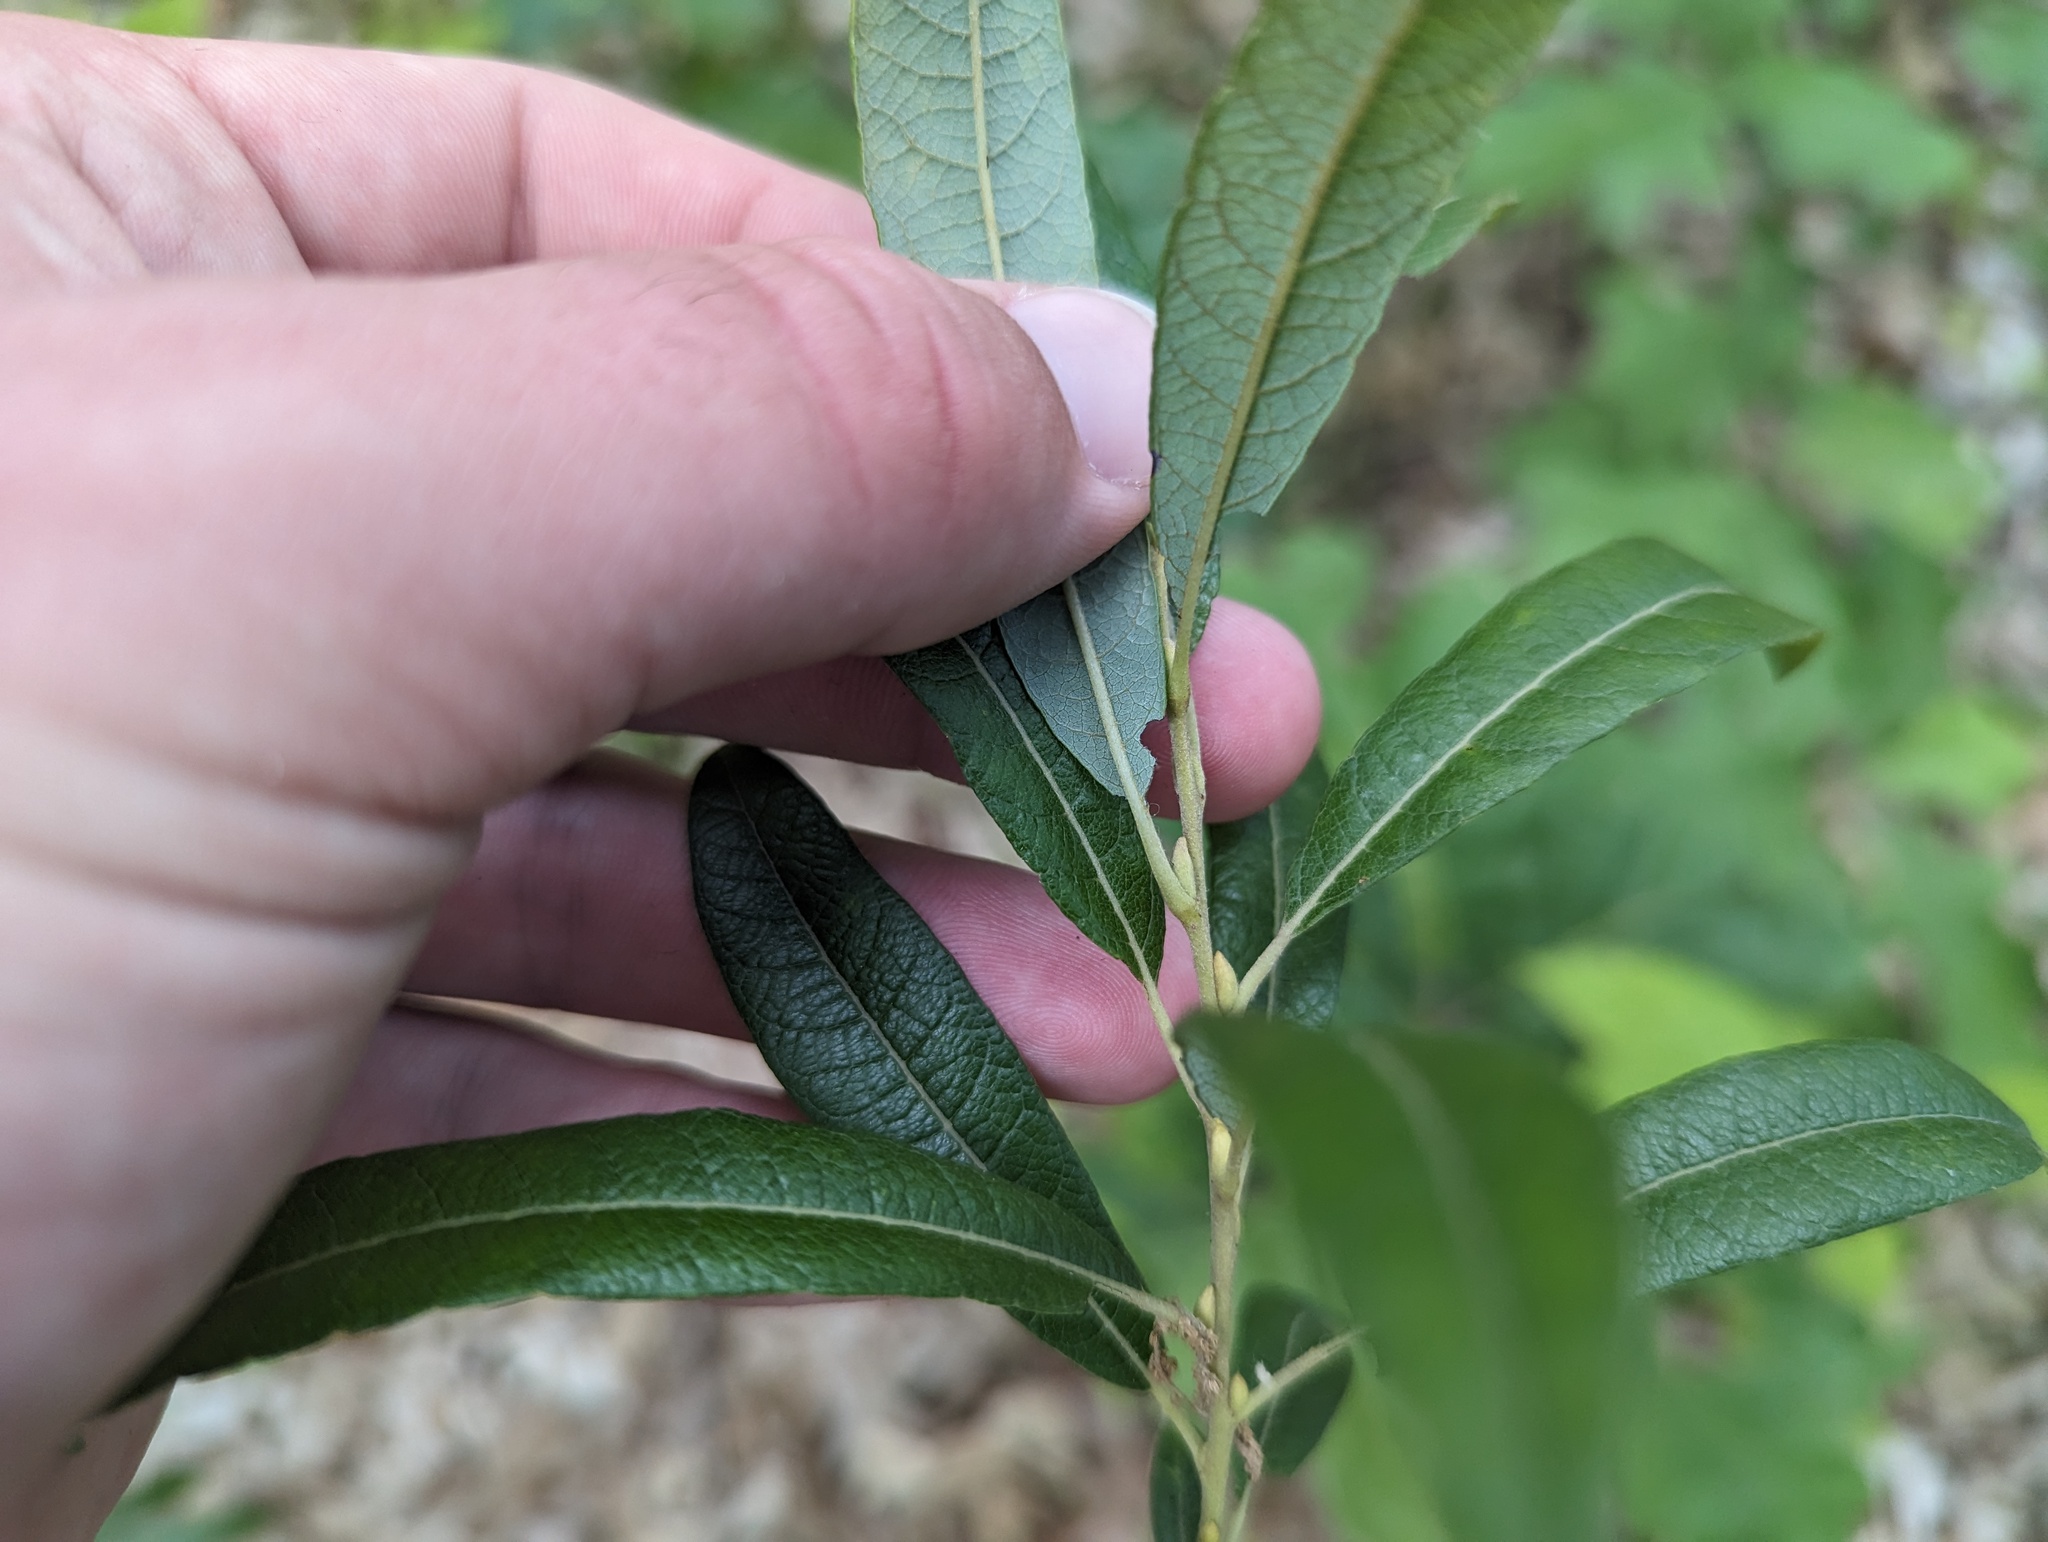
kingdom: Plantae
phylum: Tracheophyta
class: Magnoliopsida
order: Malpighiales
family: Salicaceae
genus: Salix
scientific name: Salix humilis
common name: Prairie willow
